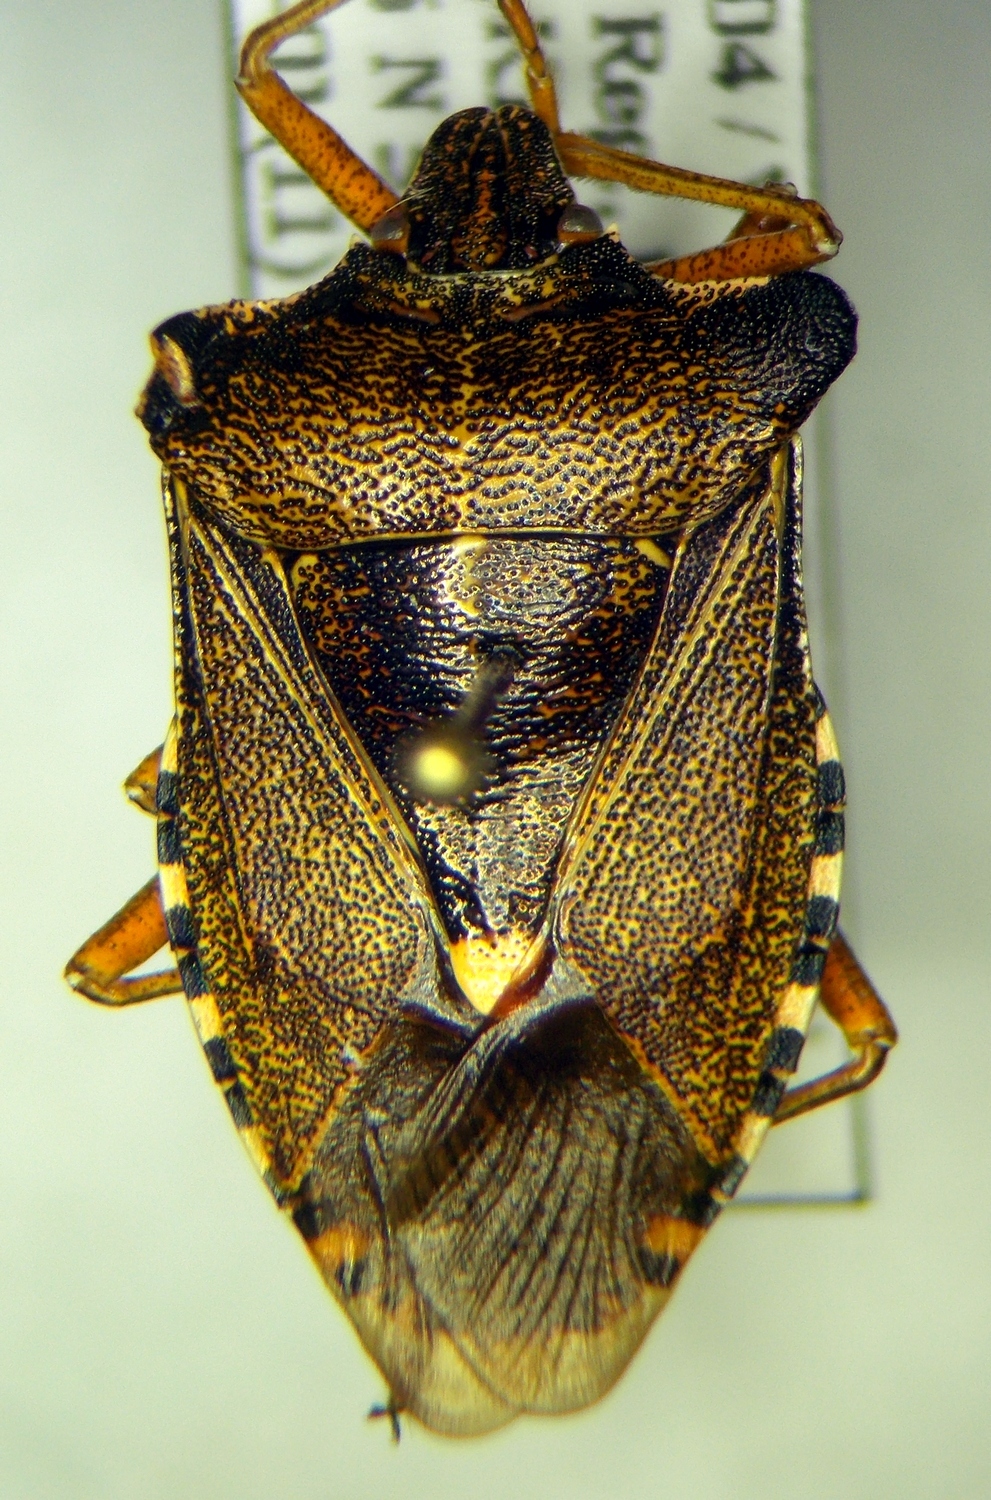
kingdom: Animalia
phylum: Arthropoda
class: Insecta
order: Hemiptera
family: Pentatomidae
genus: Pentatoma
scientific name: Pentatoma rufipes
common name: Forest bug
